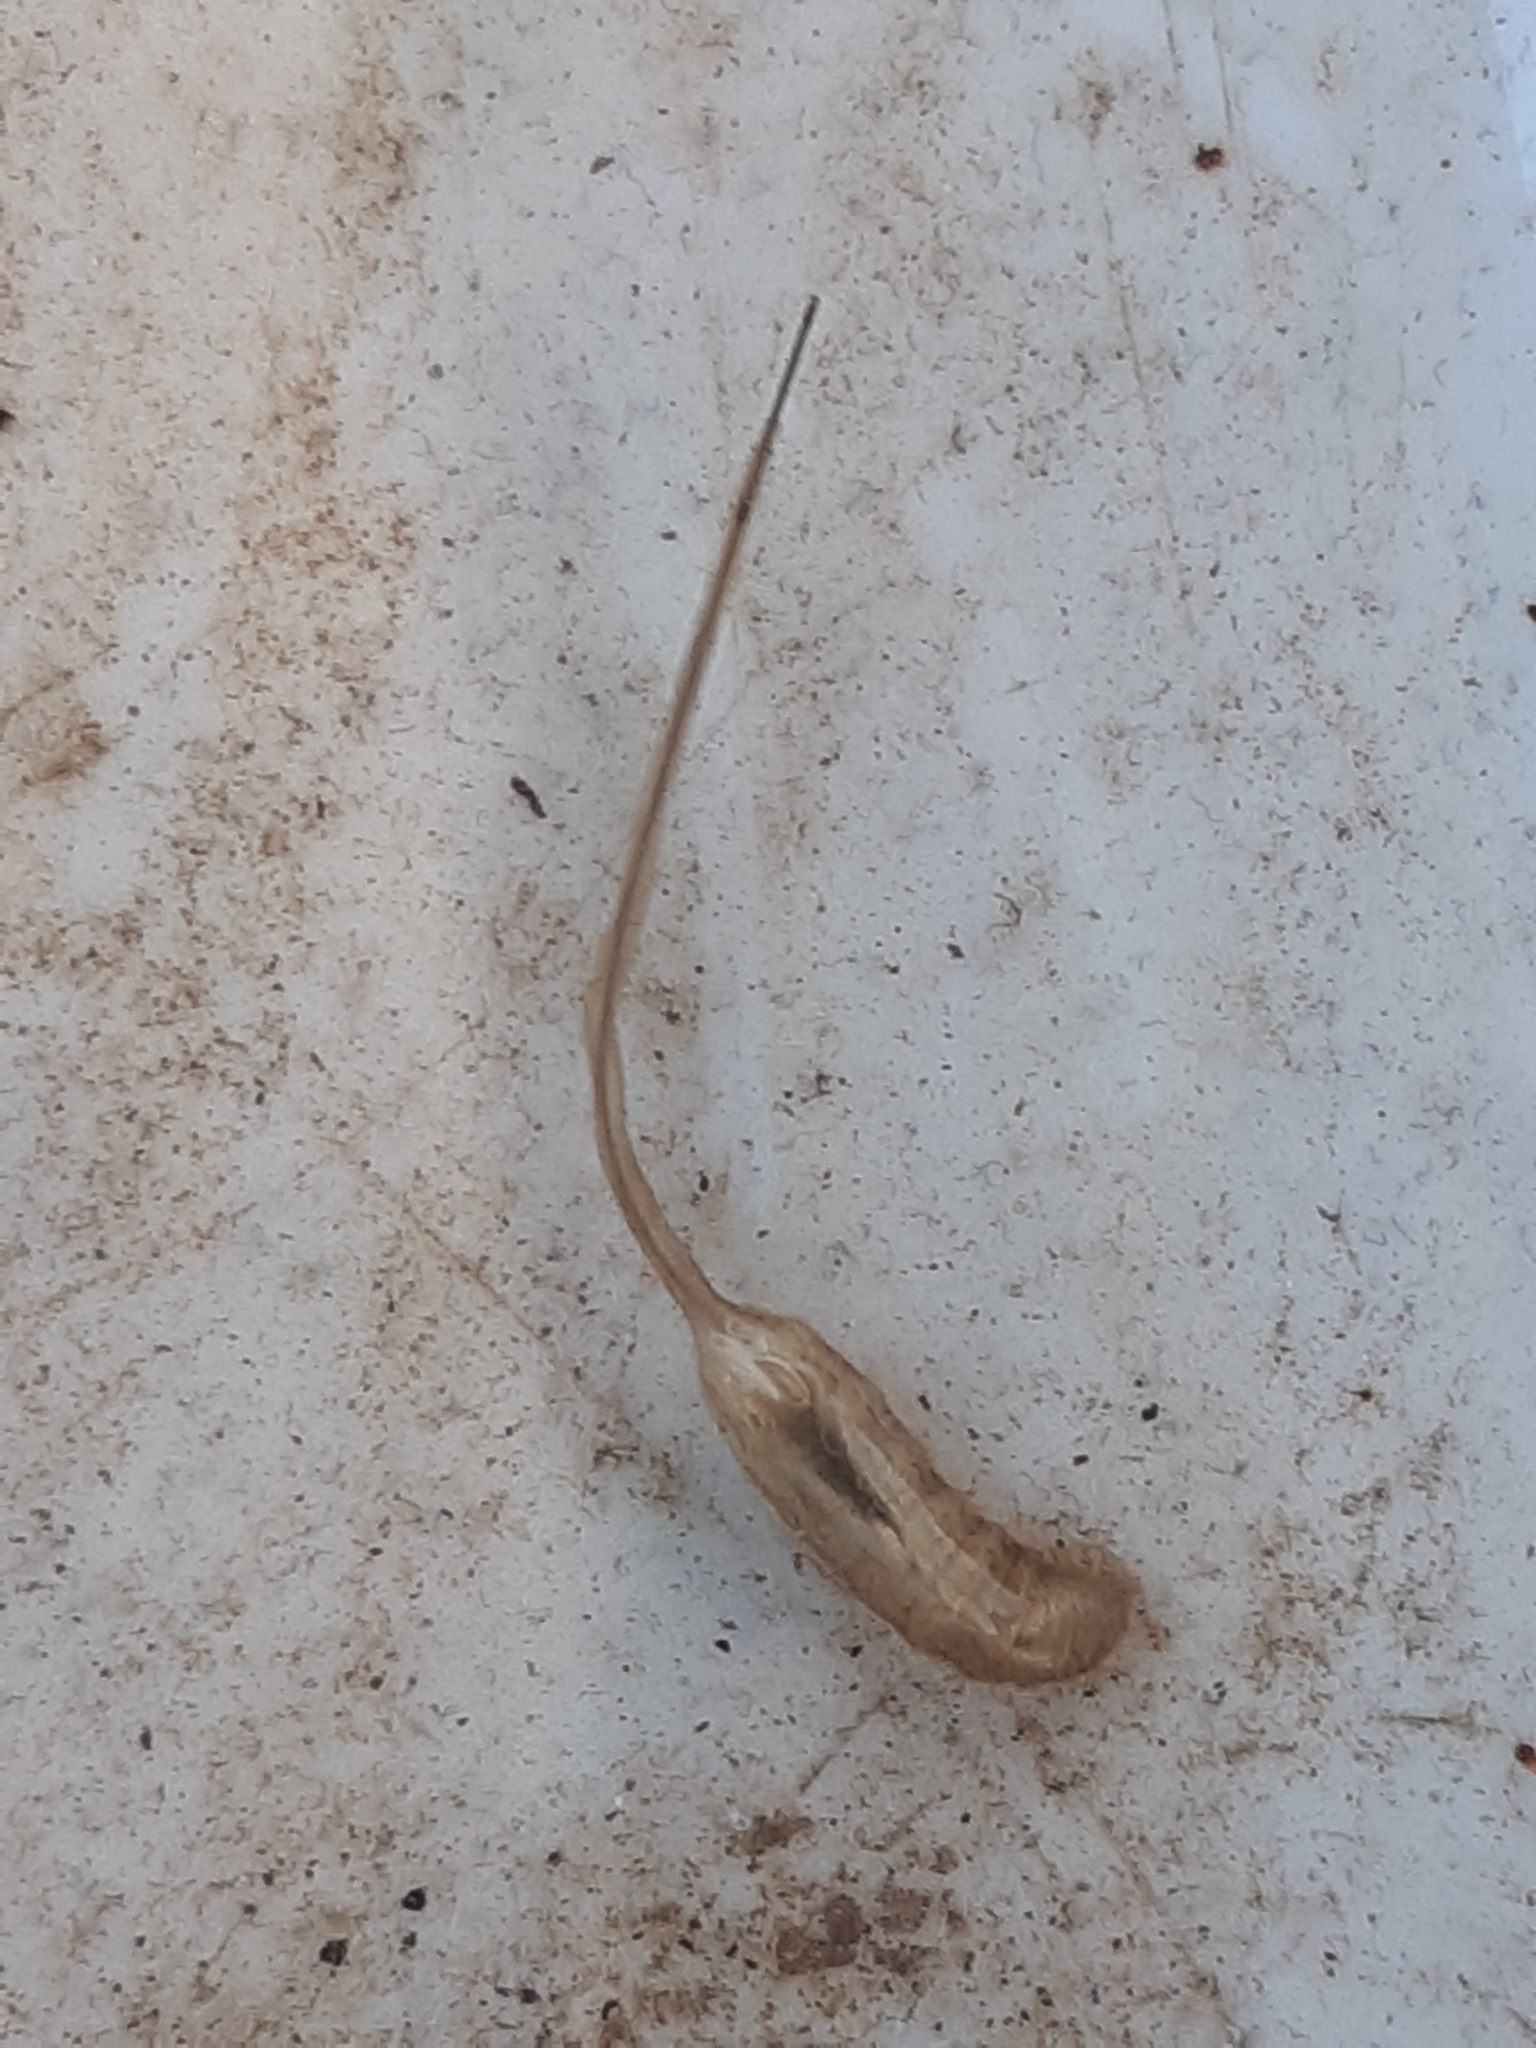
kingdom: Animalia
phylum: Arthropoda
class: Insecta
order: Diptera
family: Syrphidae
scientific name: Syrphidae
